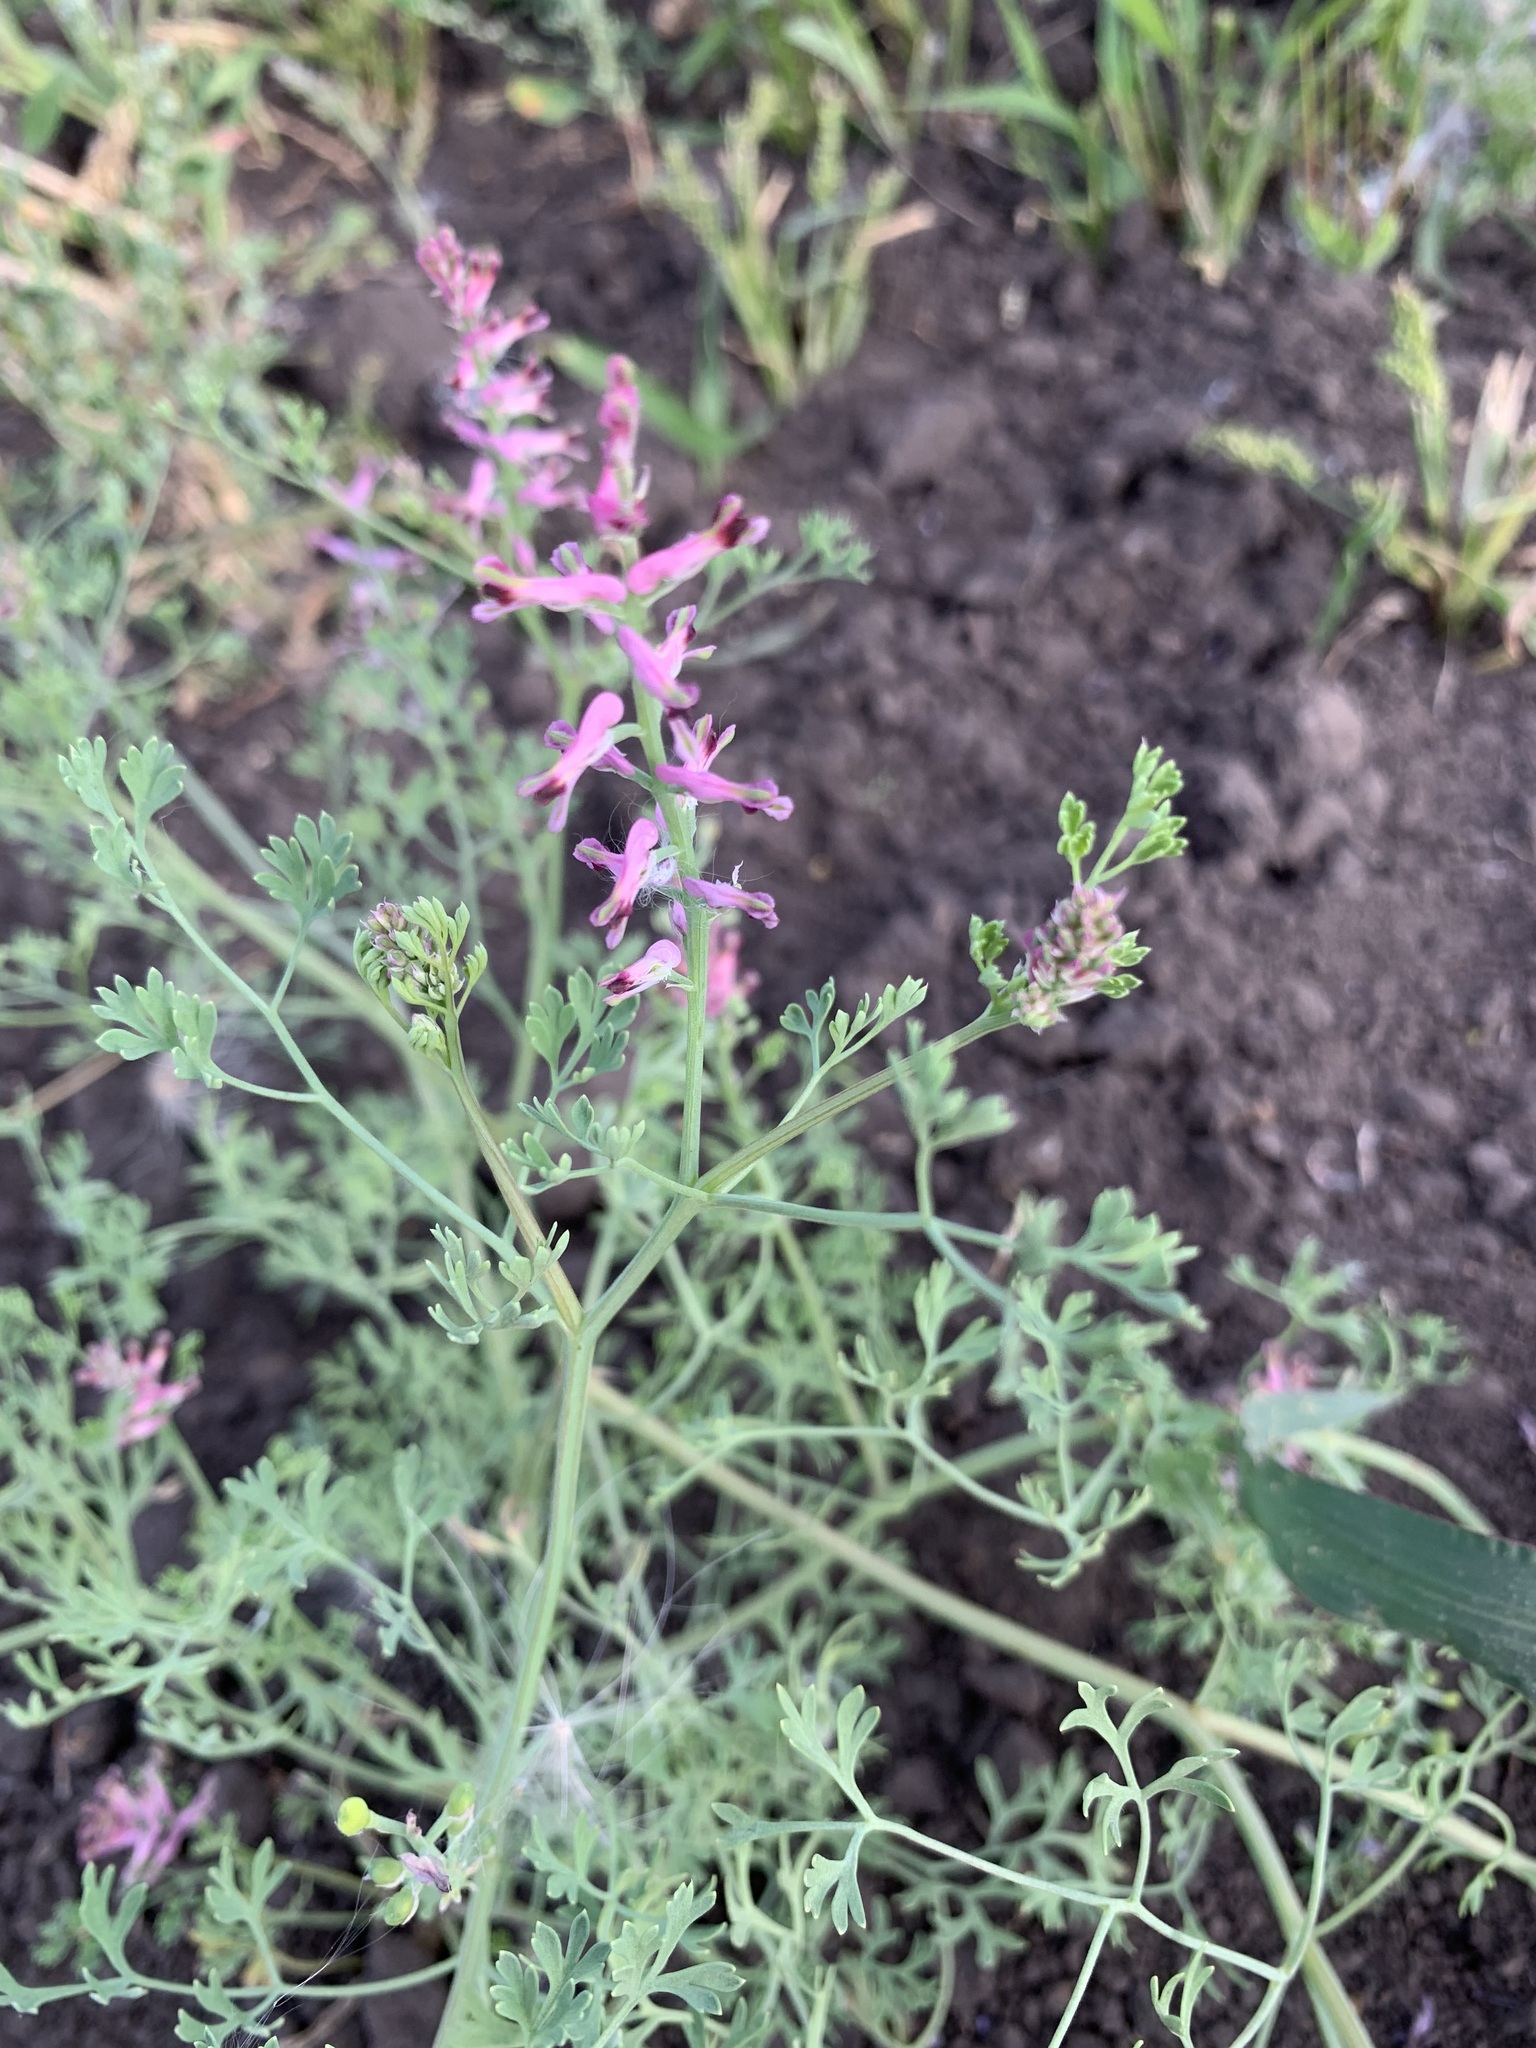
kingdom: Plantae
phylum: Tracheophyta
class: Magnoliopsida
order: Ranunculales
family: Papaveraceae
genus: Fumaria
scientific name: Fumaria officinalis
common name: Common fumitory
